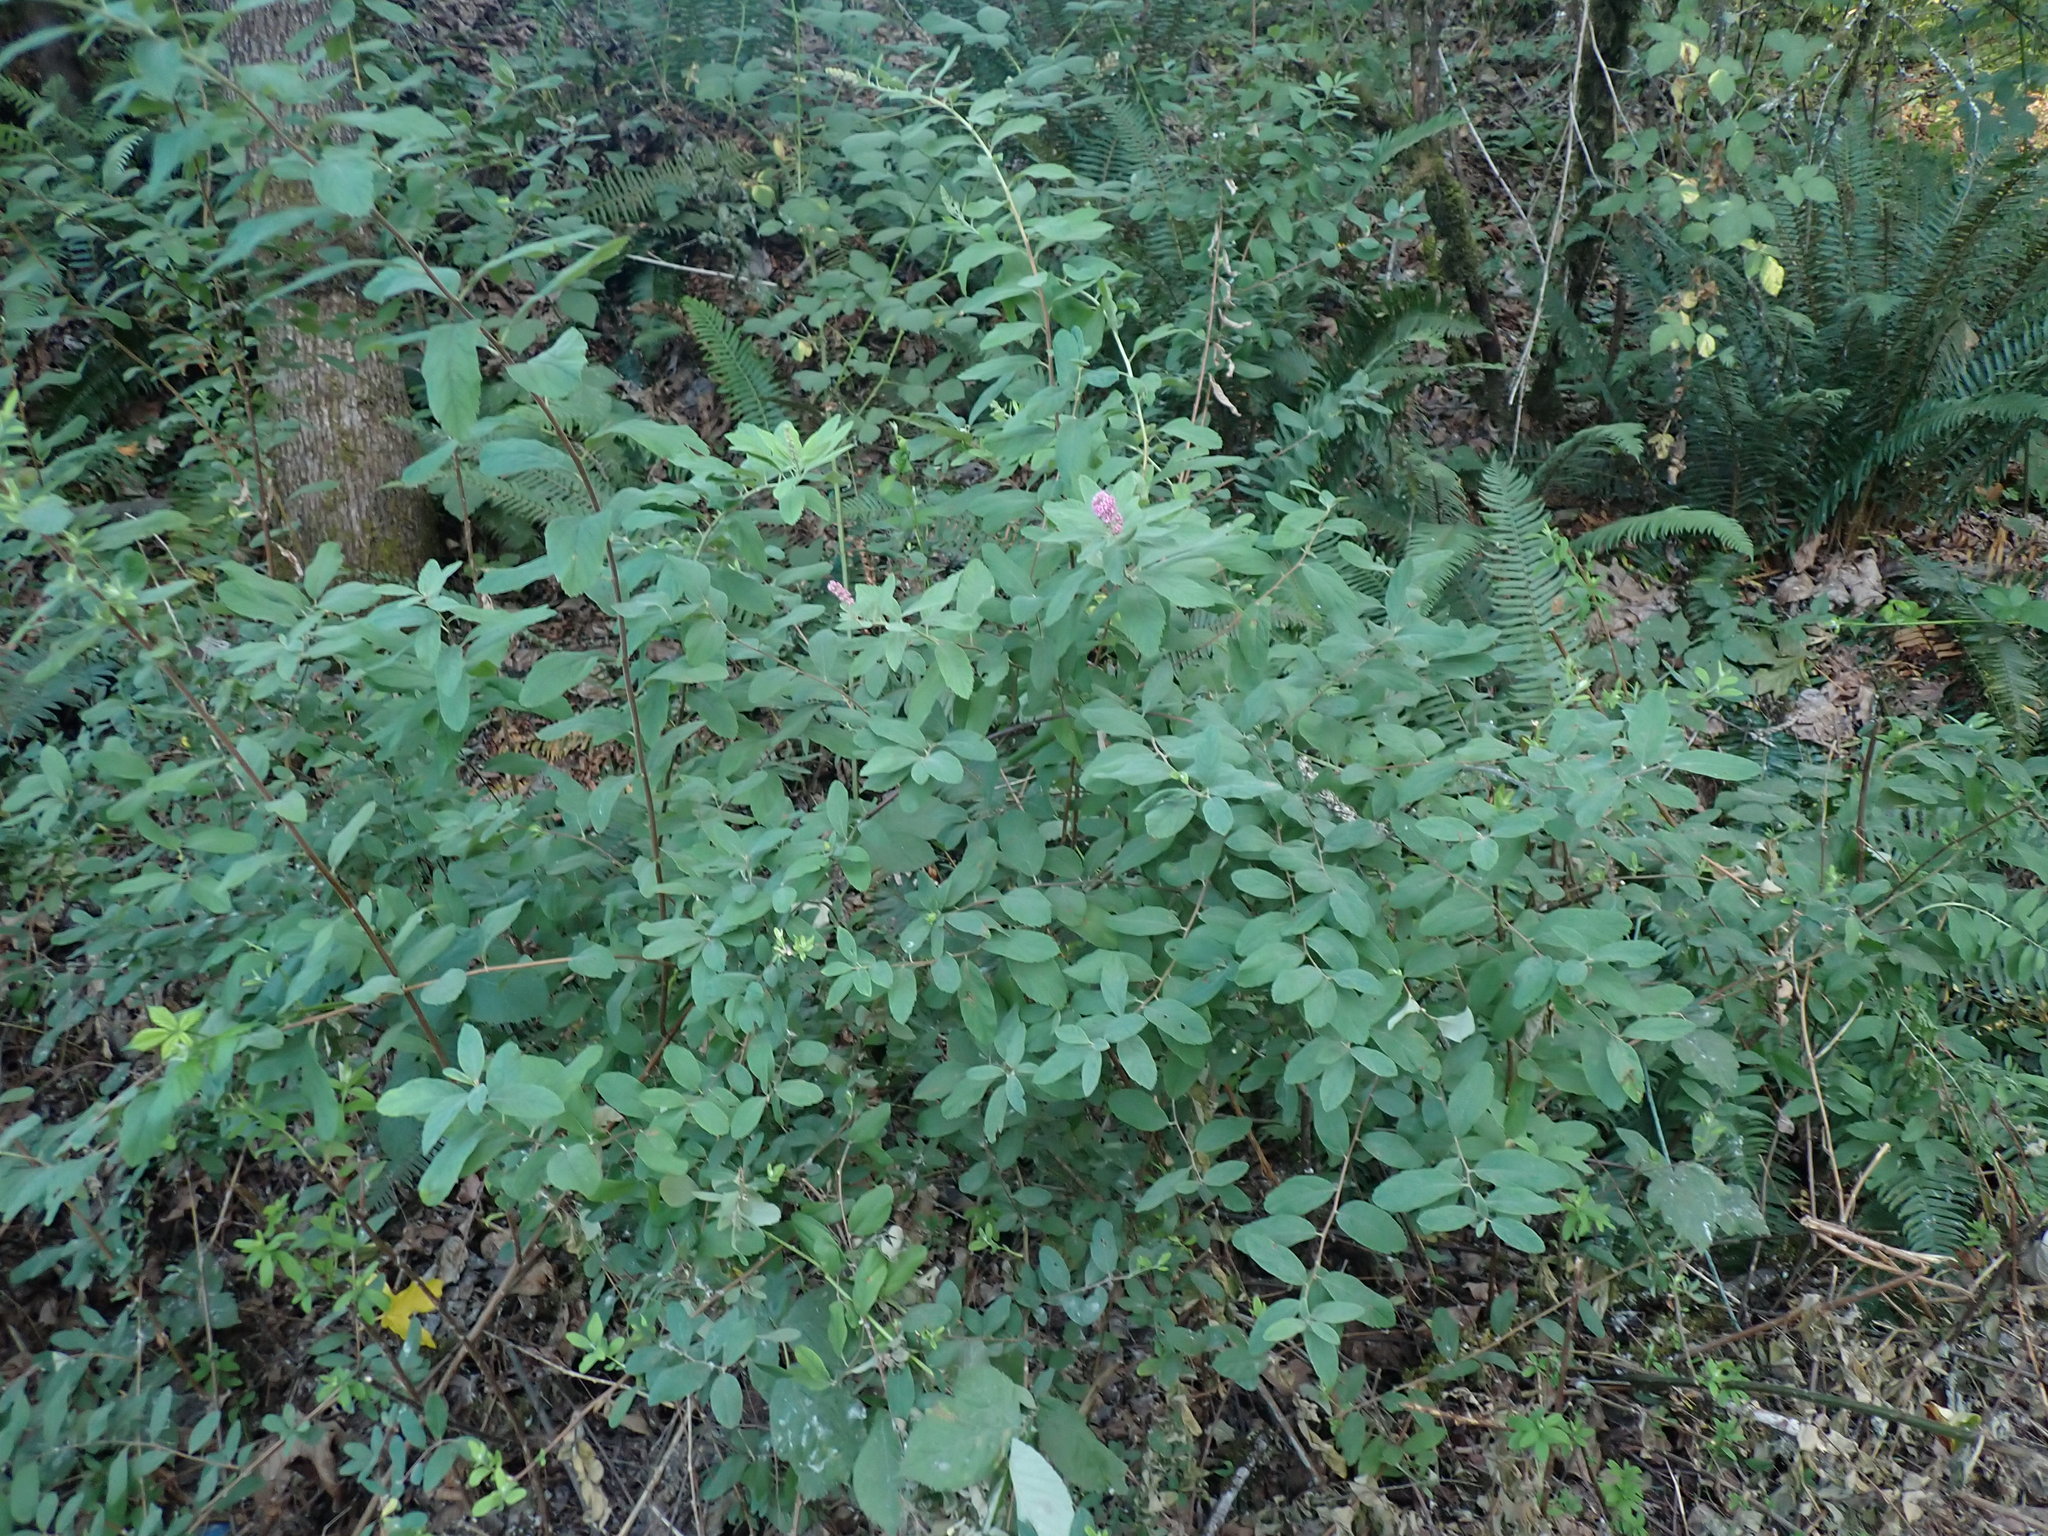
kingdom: Plantae
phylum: Tracheophyta
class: Magnoliopsida
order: Rosales
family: Rosaceae
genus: Spiraea
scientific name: Spiraea douglasii
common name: Steeplebush
